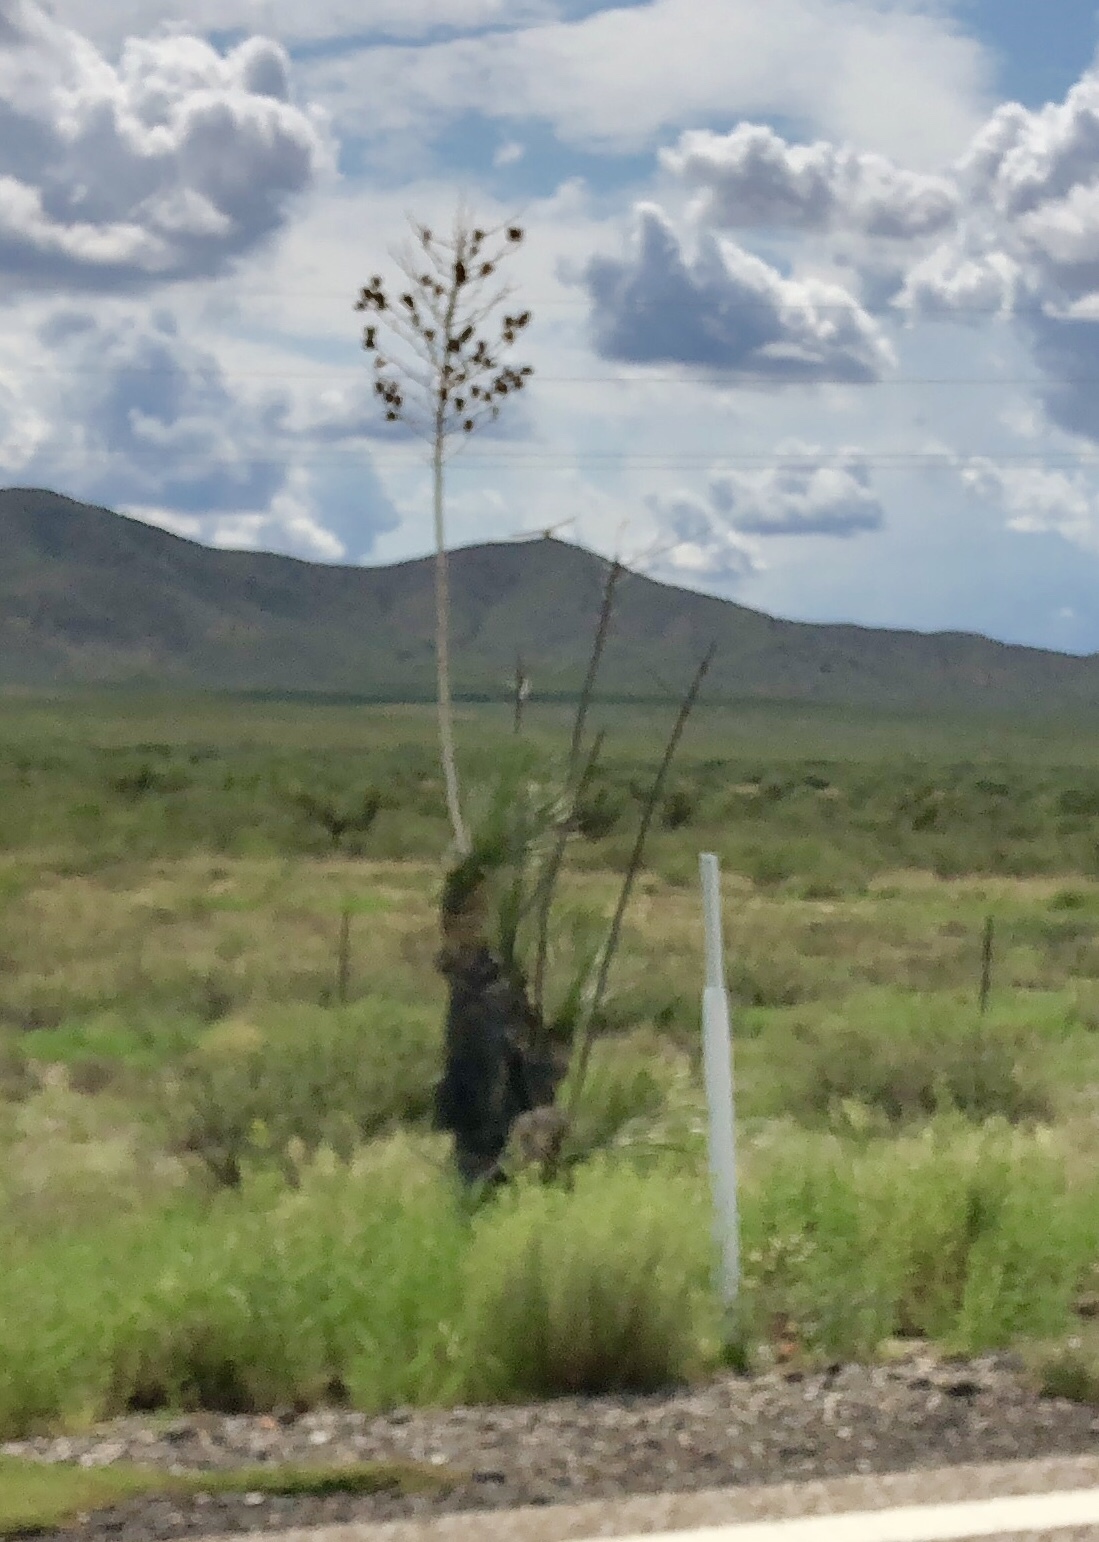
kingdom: Plantae
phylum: Tracheophyta
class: Liliopsida
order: Asparagales
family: Asparagaceae
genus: Yucca
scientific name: Yucca elata
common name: Palmella
